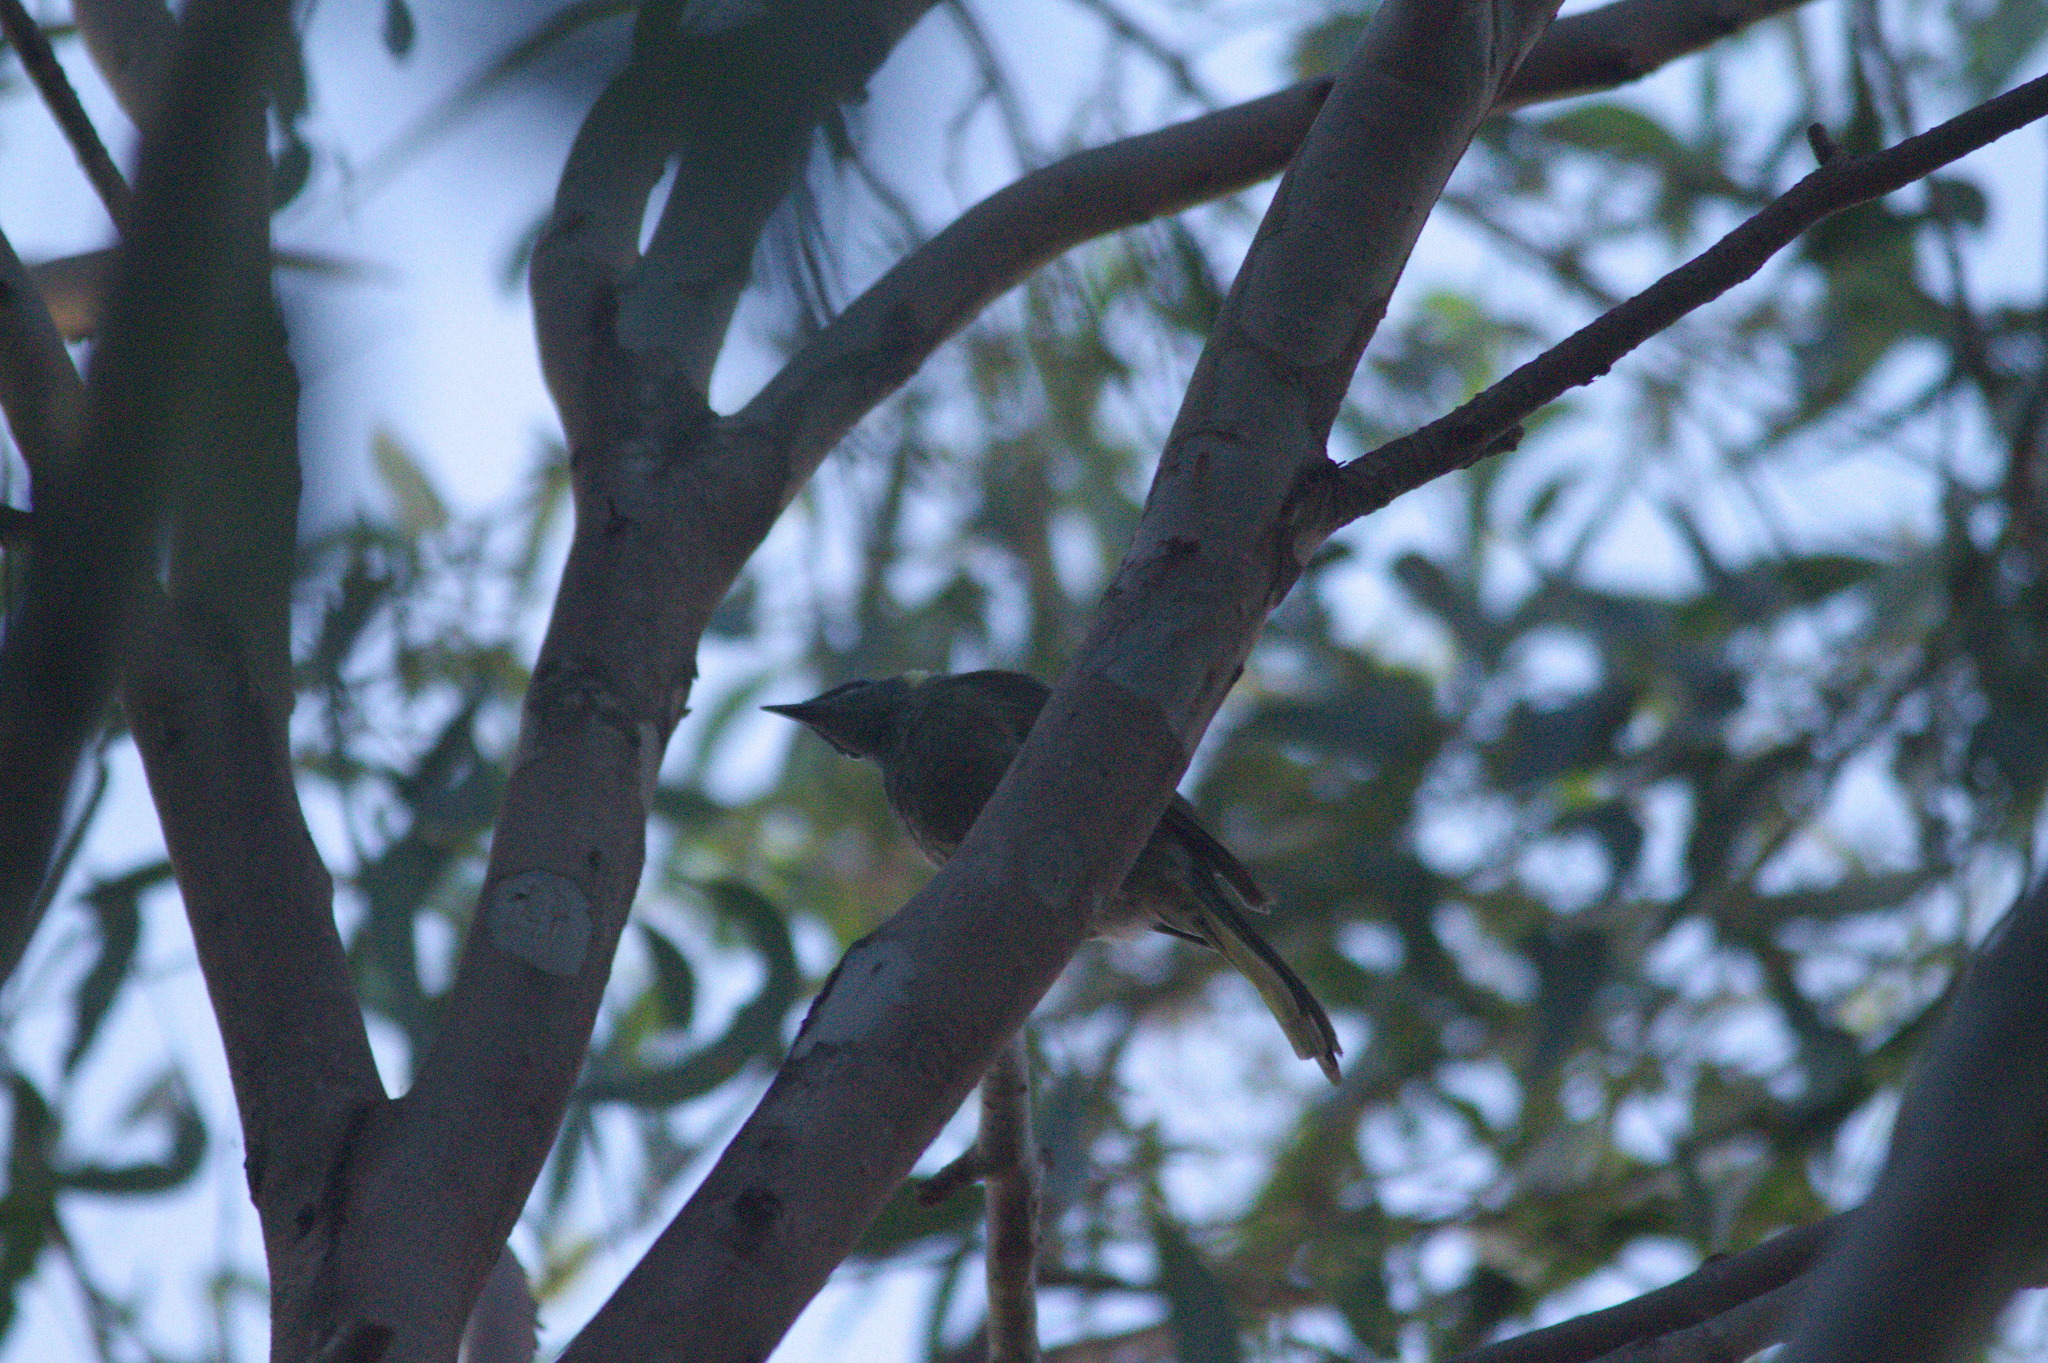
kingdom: Animalia
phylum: Chordata
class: Aves
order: Passeriformes
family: Meliphagidae
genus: Meliphaga
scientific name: Meliphaga lewinii
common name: Lewin's honeyeater
